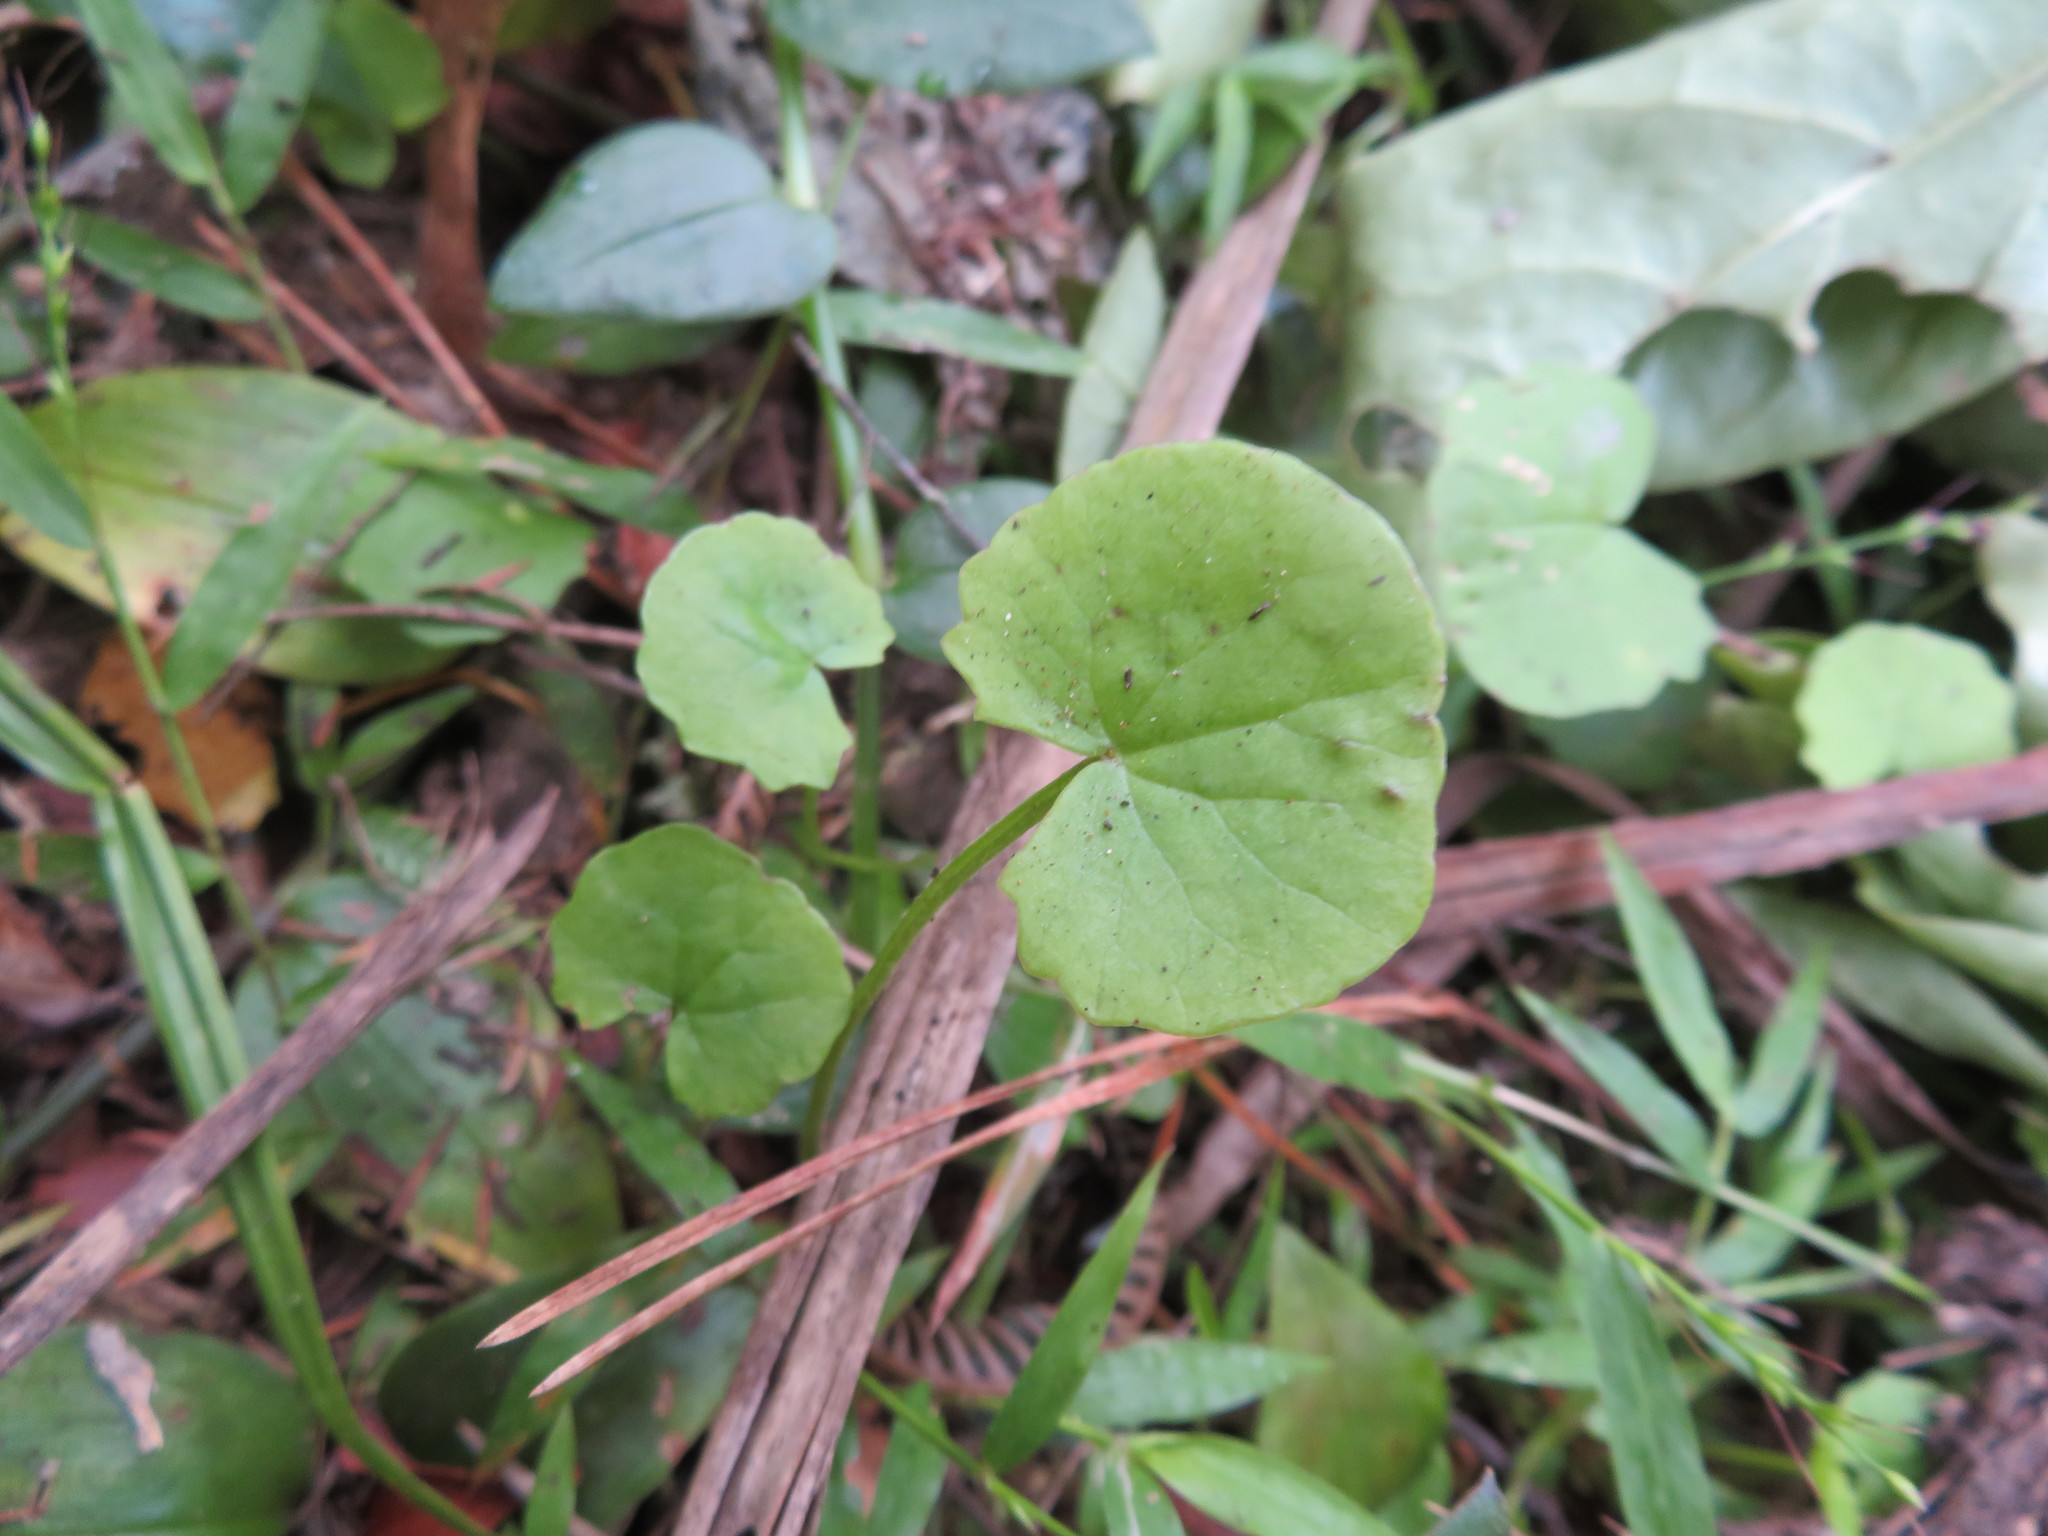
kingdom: Plantae
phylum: Tracheophyta
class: Magnoliopsida
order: Apiales
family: Apiaceae
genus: Centella
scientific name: Centella uniflora
